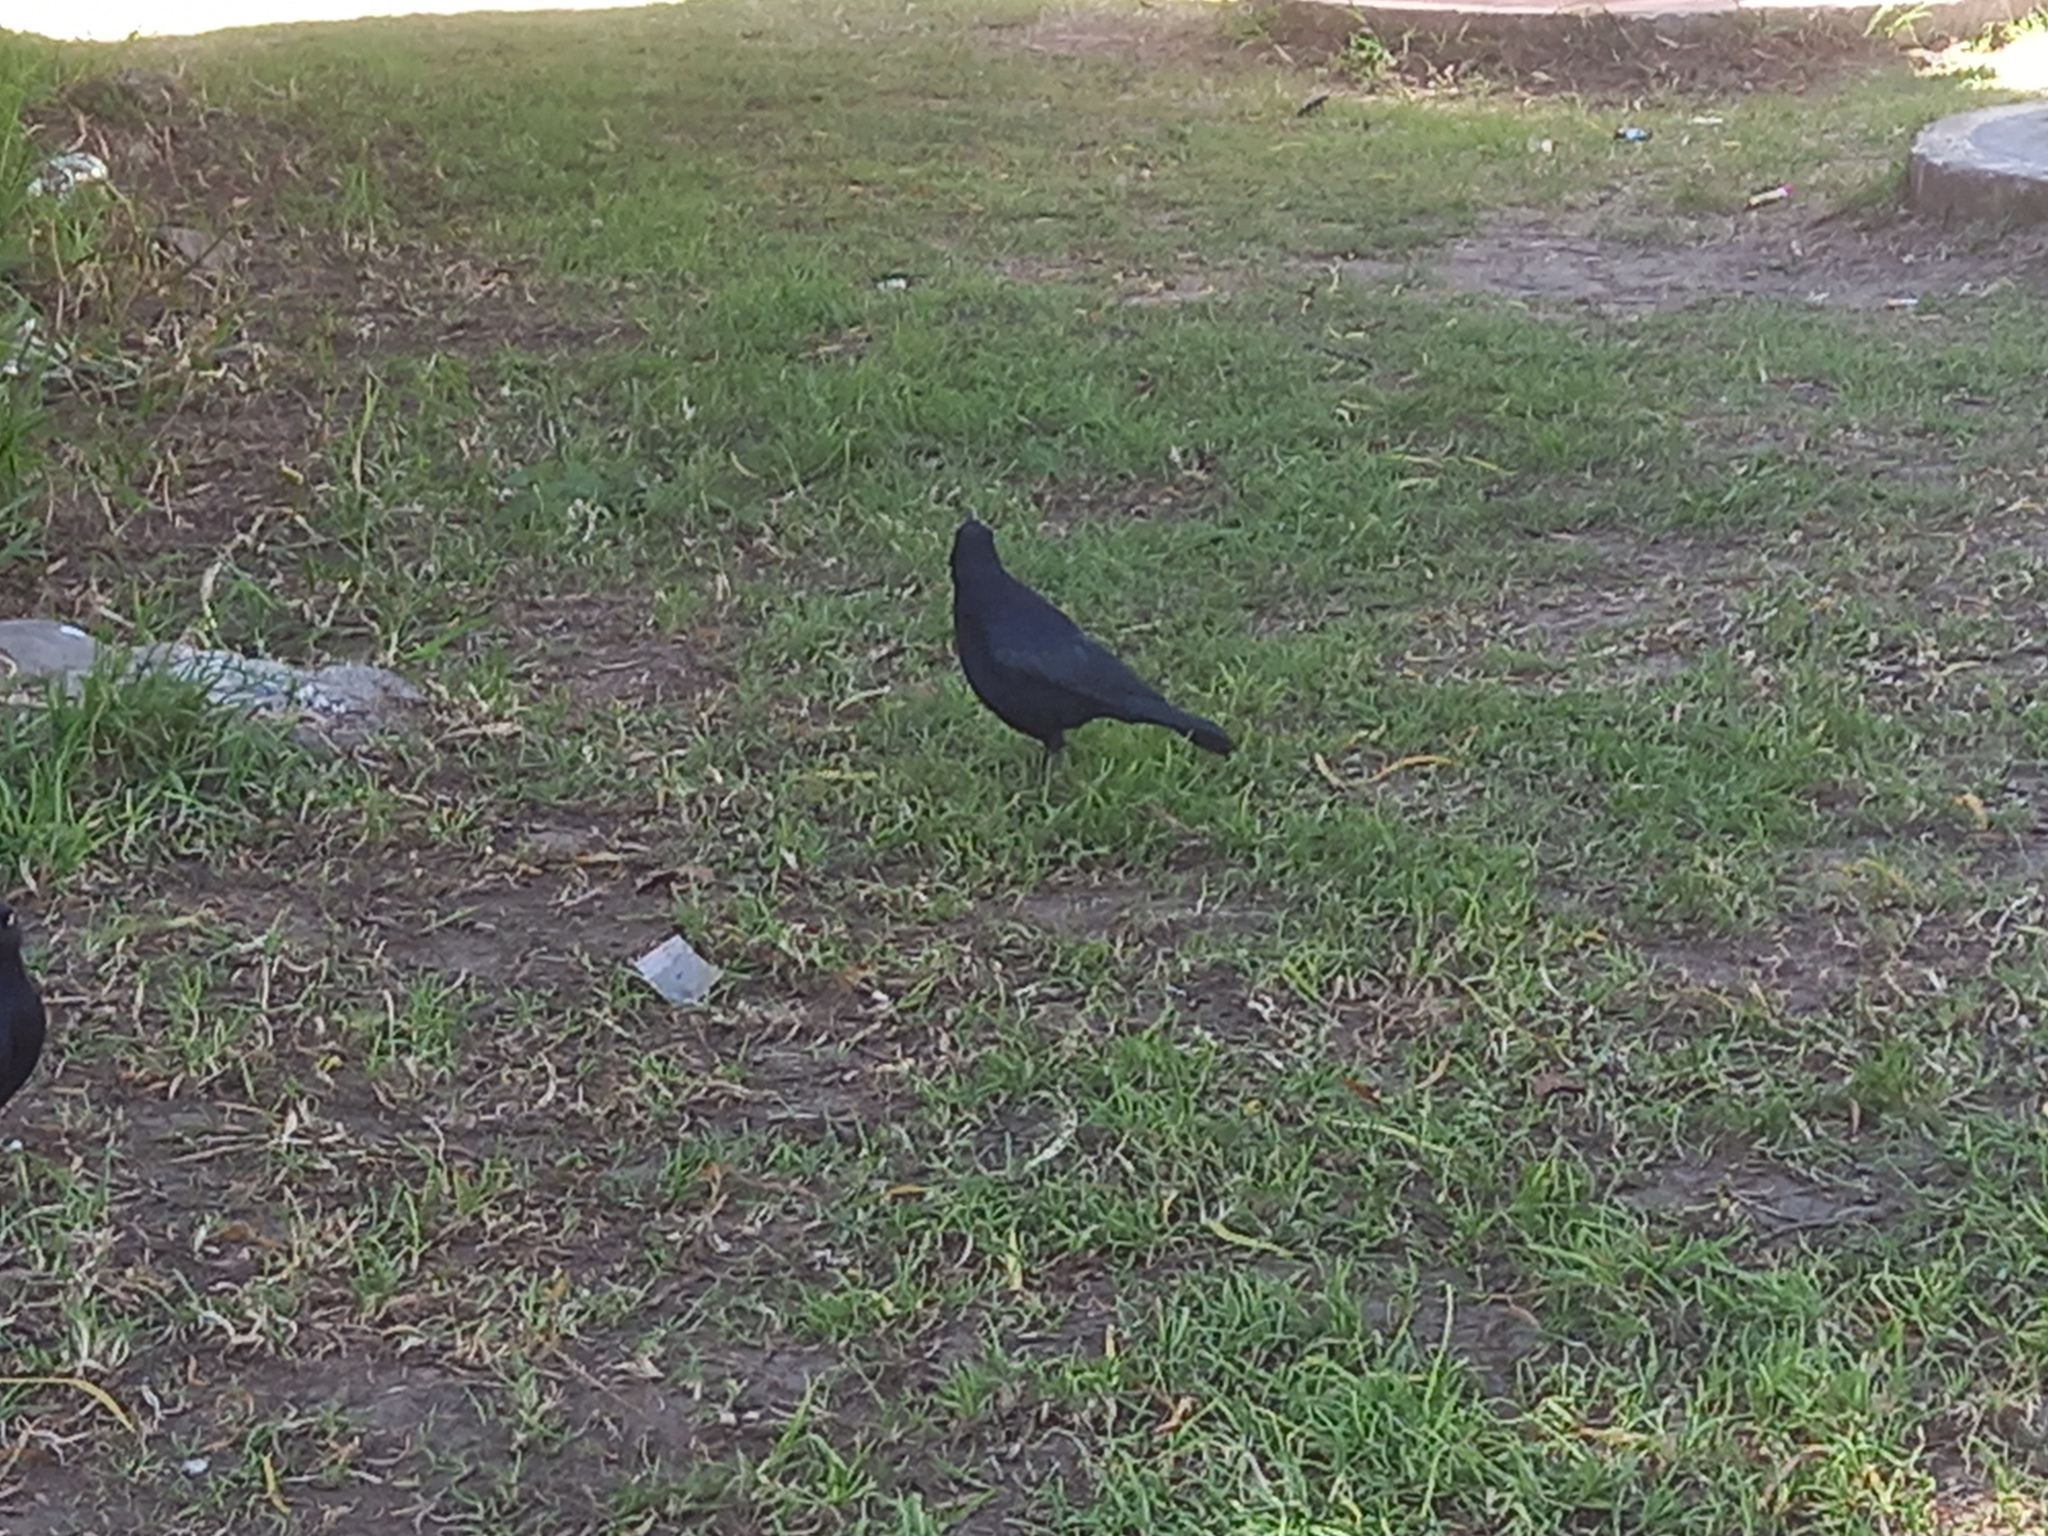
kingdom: Animalia
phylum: Chordata
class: Aves
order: Passeriformes
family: Icteridae
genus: Quiscalus
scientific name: Quiscalus lugubris
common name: Carib grackle
